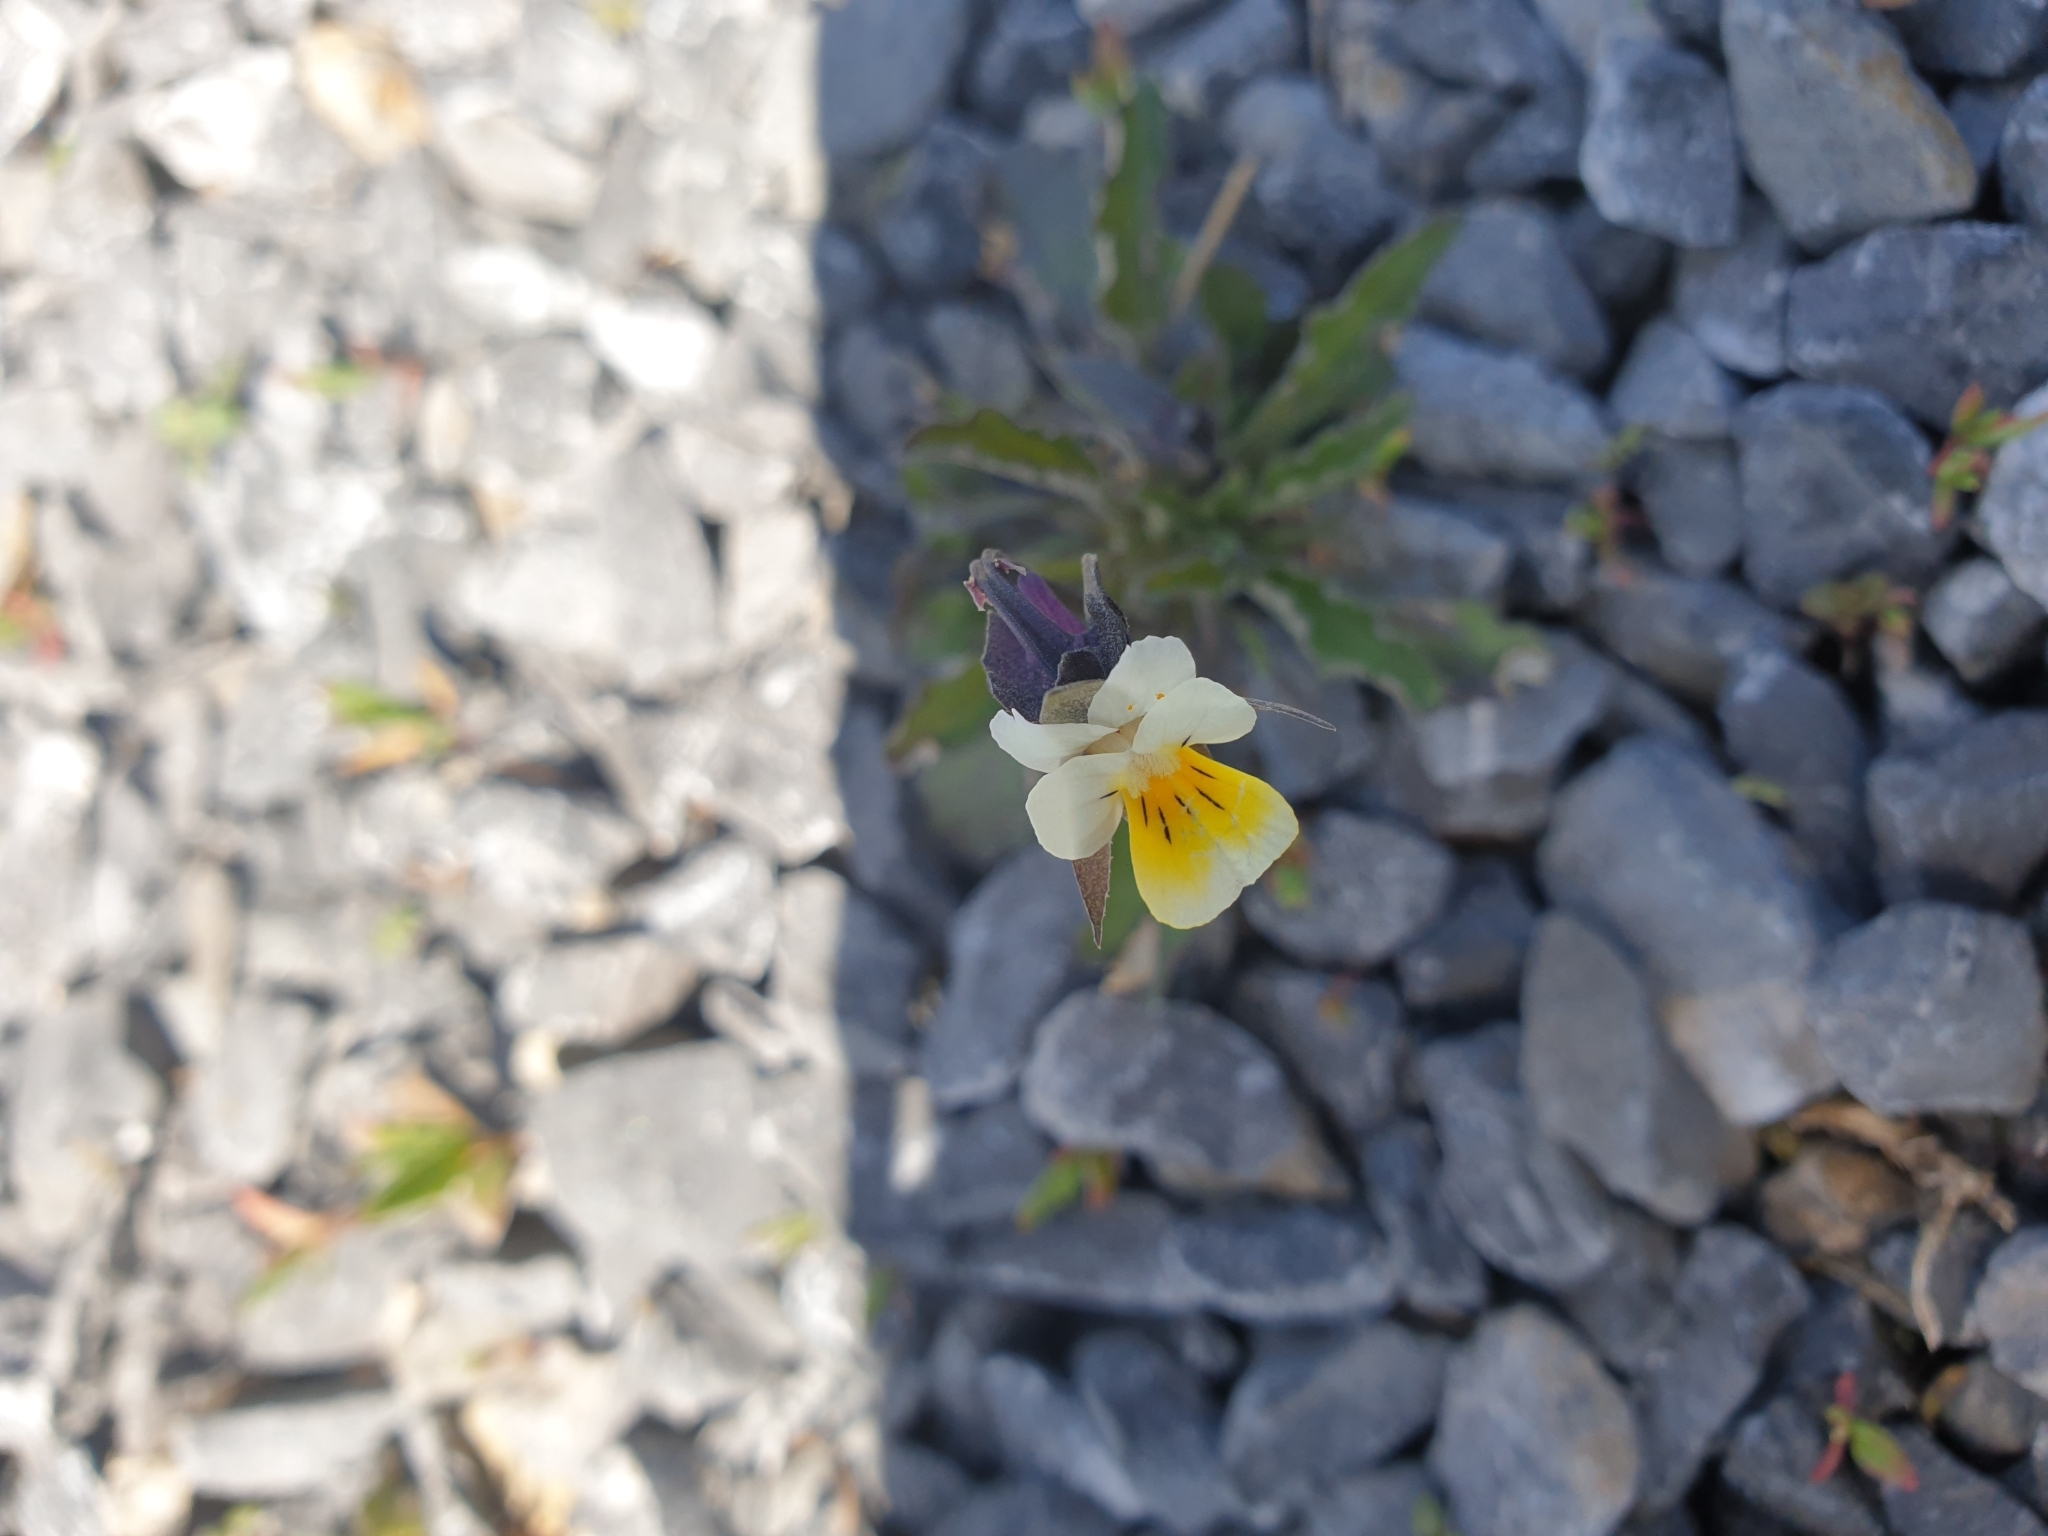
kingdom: Plantae
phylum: Tracheophyta
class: Magnoliopsida
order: Malpighiales
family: Violaceae
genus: Viola
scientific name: Viola arvensis
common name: Field pansy
